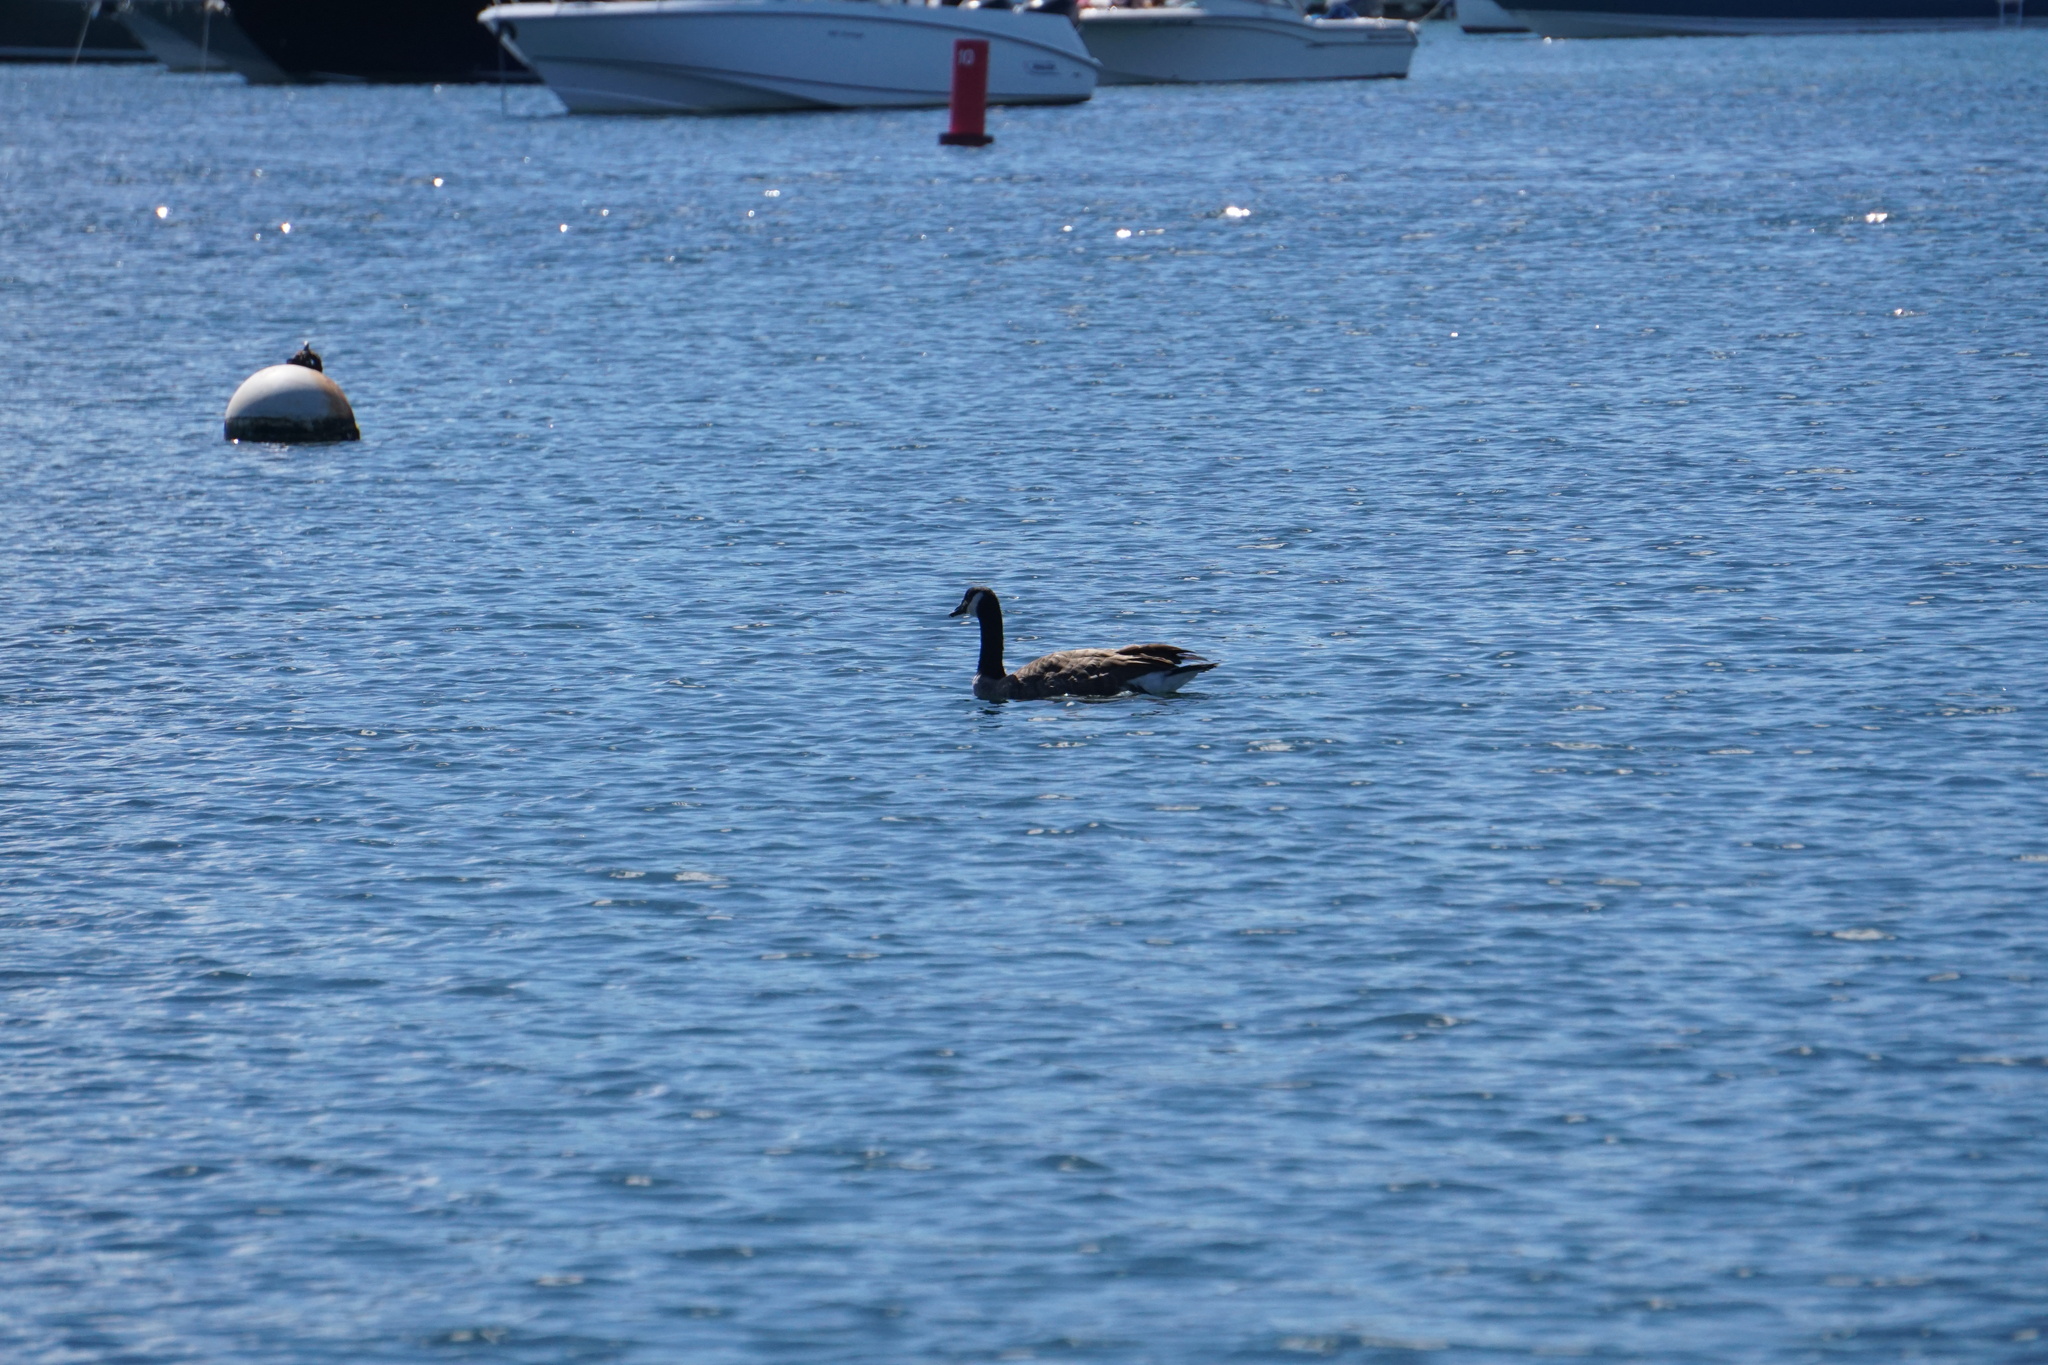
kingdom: Animalia
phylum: Chordata
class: Aves
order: Anseriformes
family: Anatidae
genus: Branta
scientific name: Branta canadensis
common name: Canada goose
